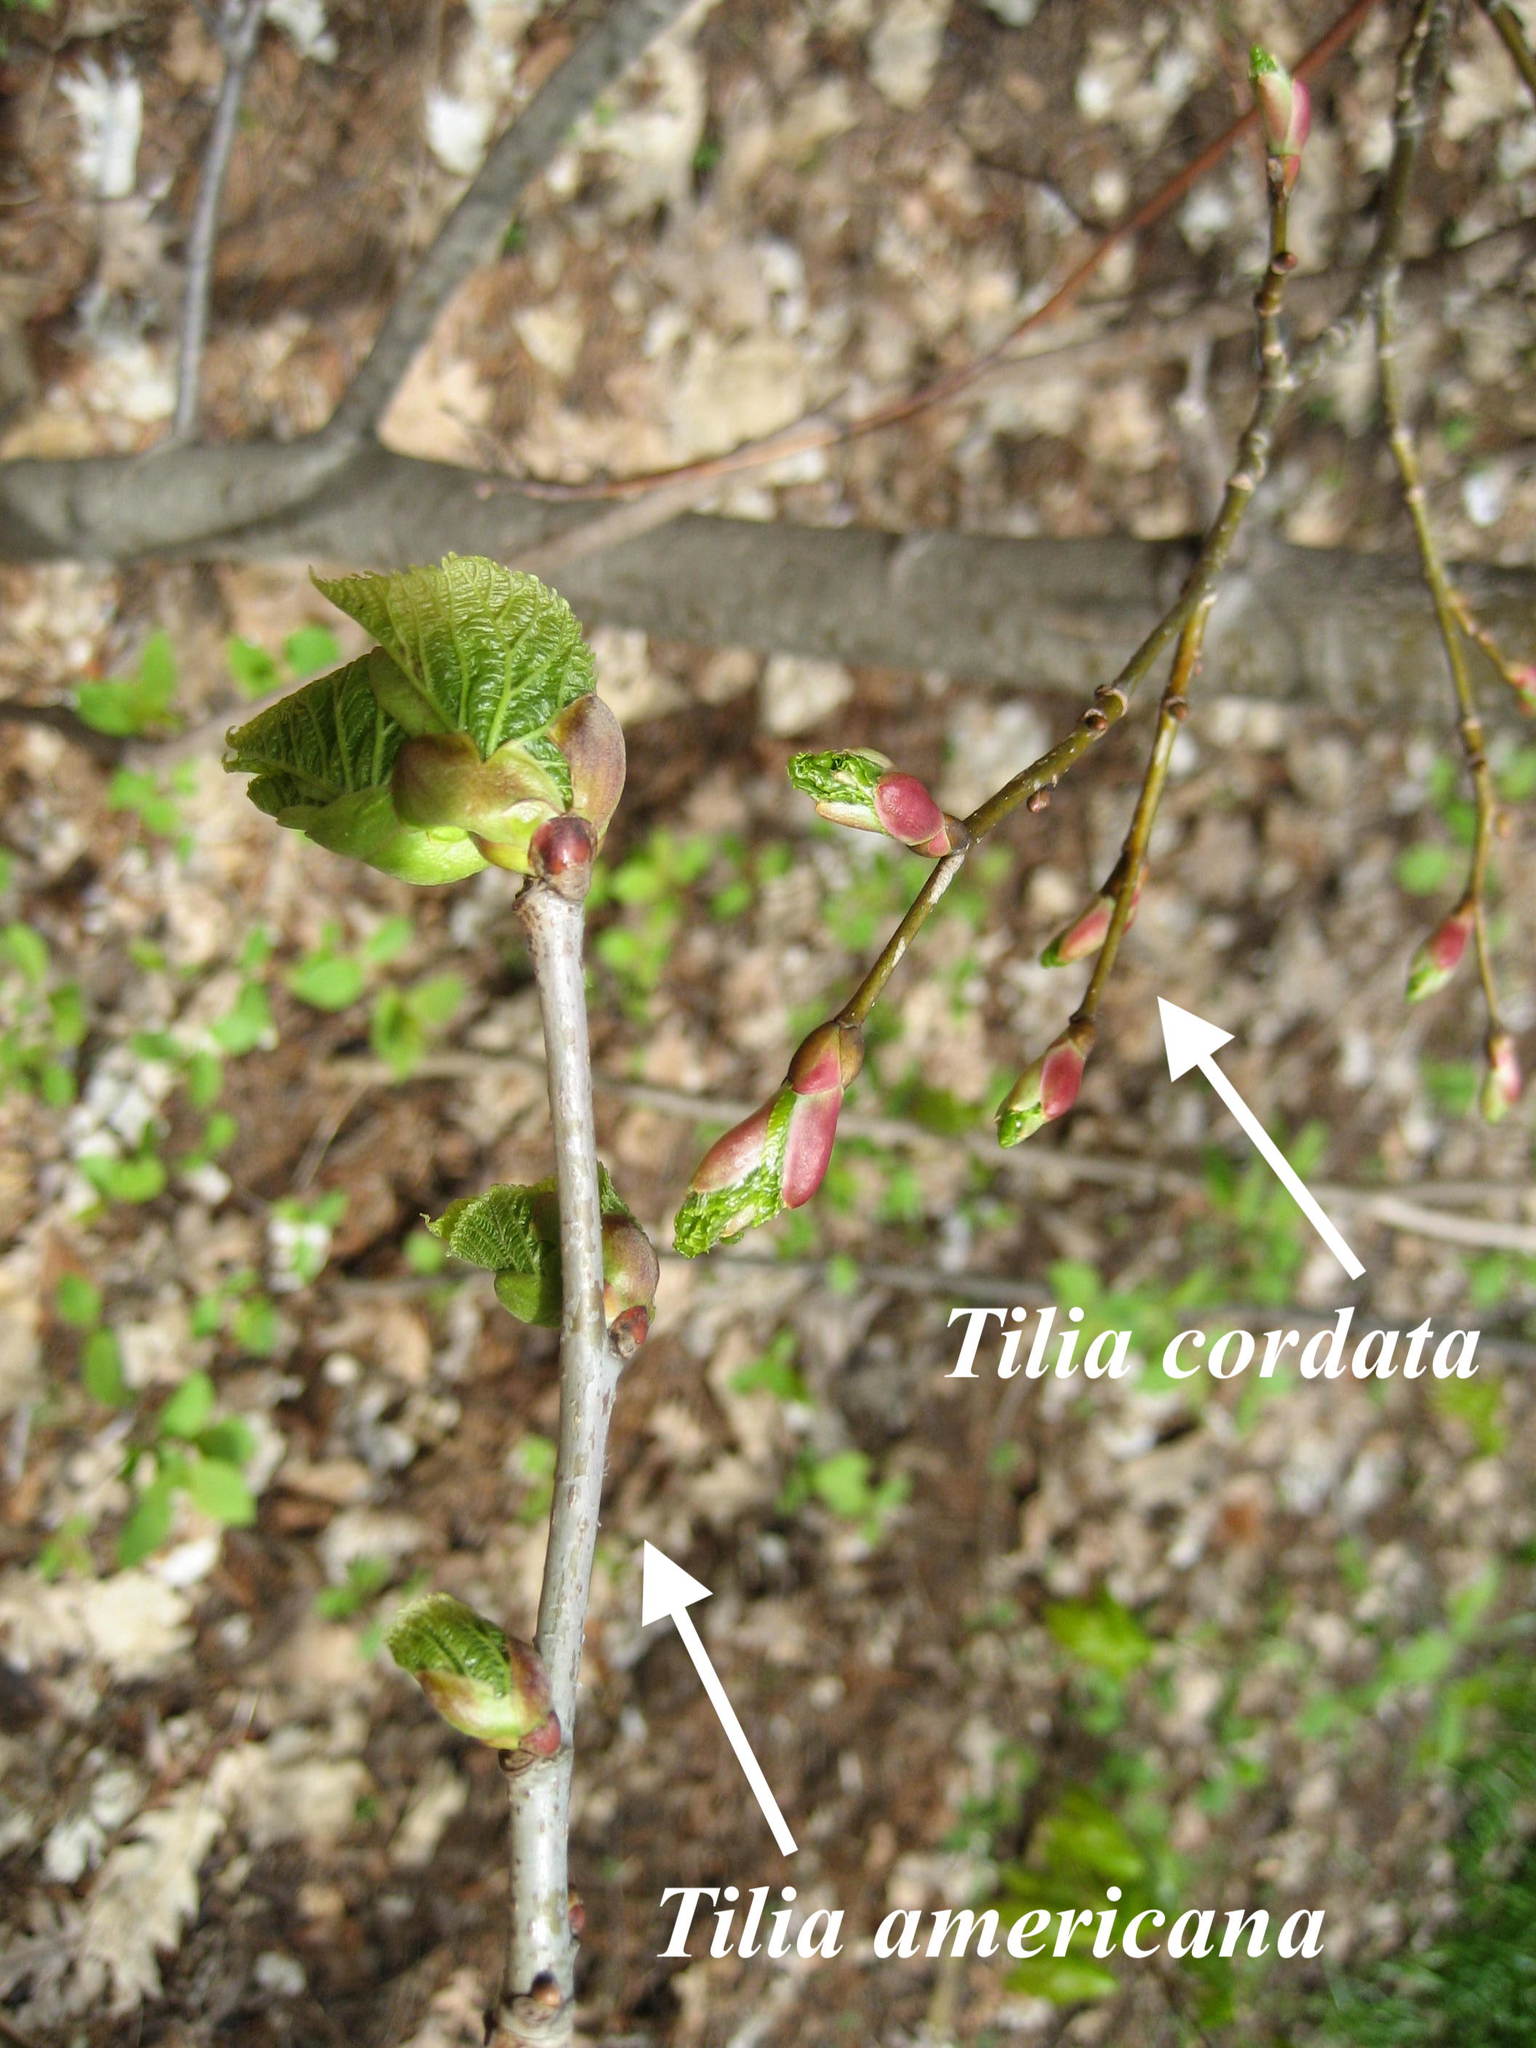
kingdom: Plantae
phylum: Tracheophyta
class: Magnoliopsida
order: Malvales
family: Malvaceae
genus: Tilia
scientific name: Tilia americana
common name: Basswood
